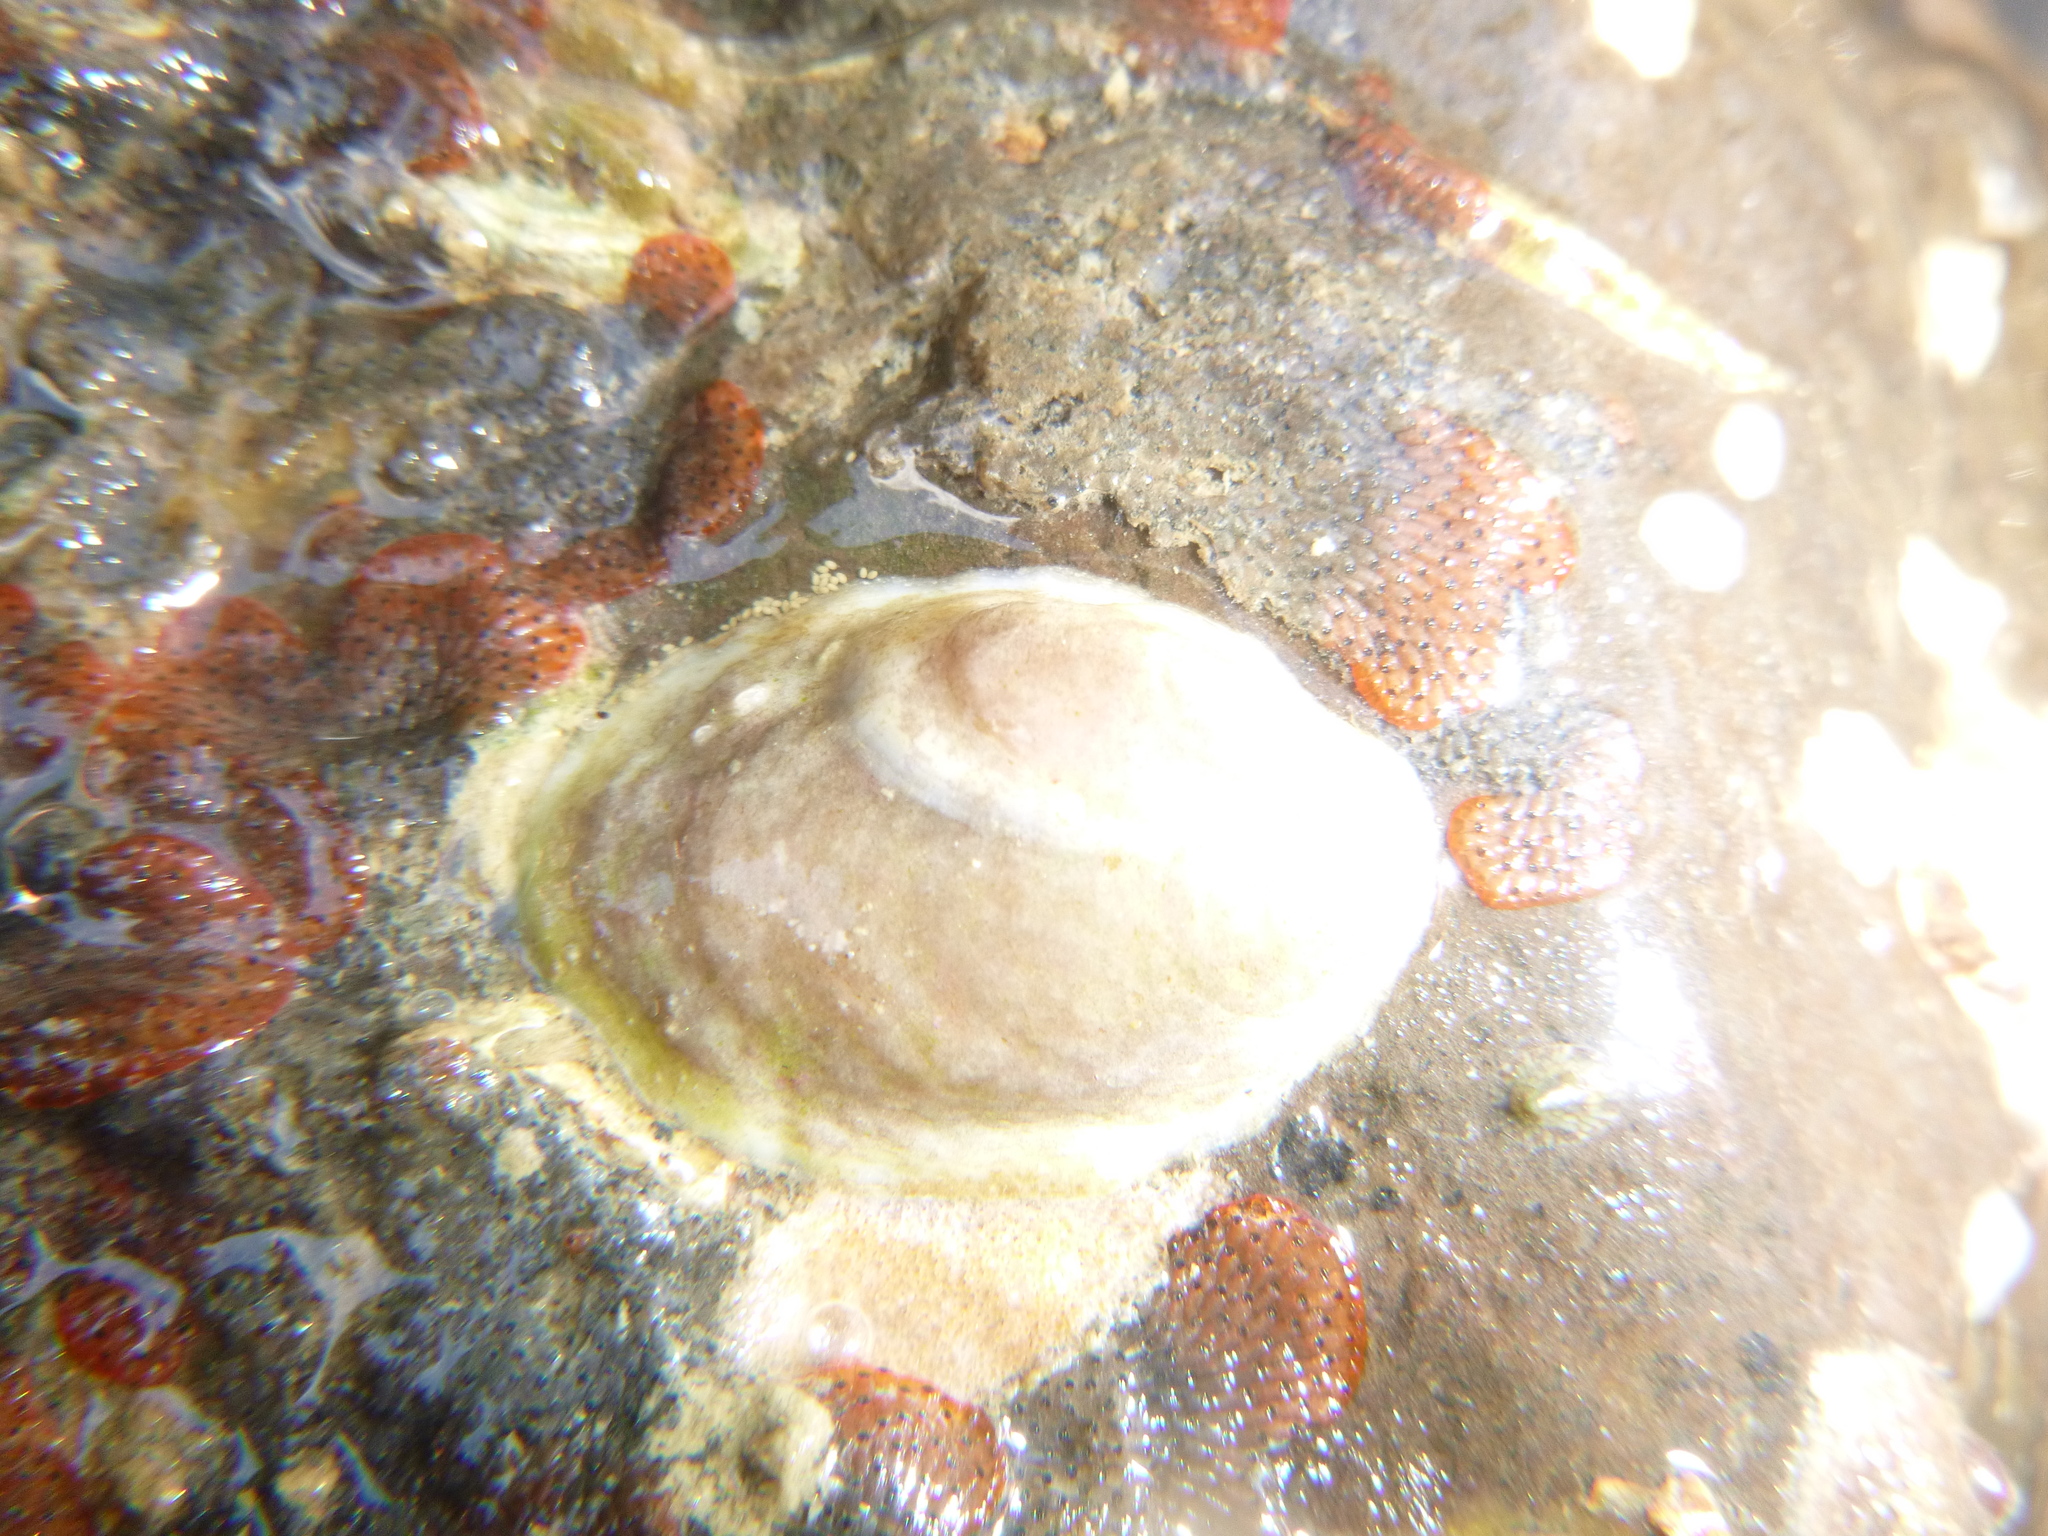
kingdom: Animalia
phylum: Mollusca
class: Gastropoda
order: Littorinimorpha
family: Calyptraeidae
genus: Maoricrypta
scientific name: Maoricrypta monoxyla
